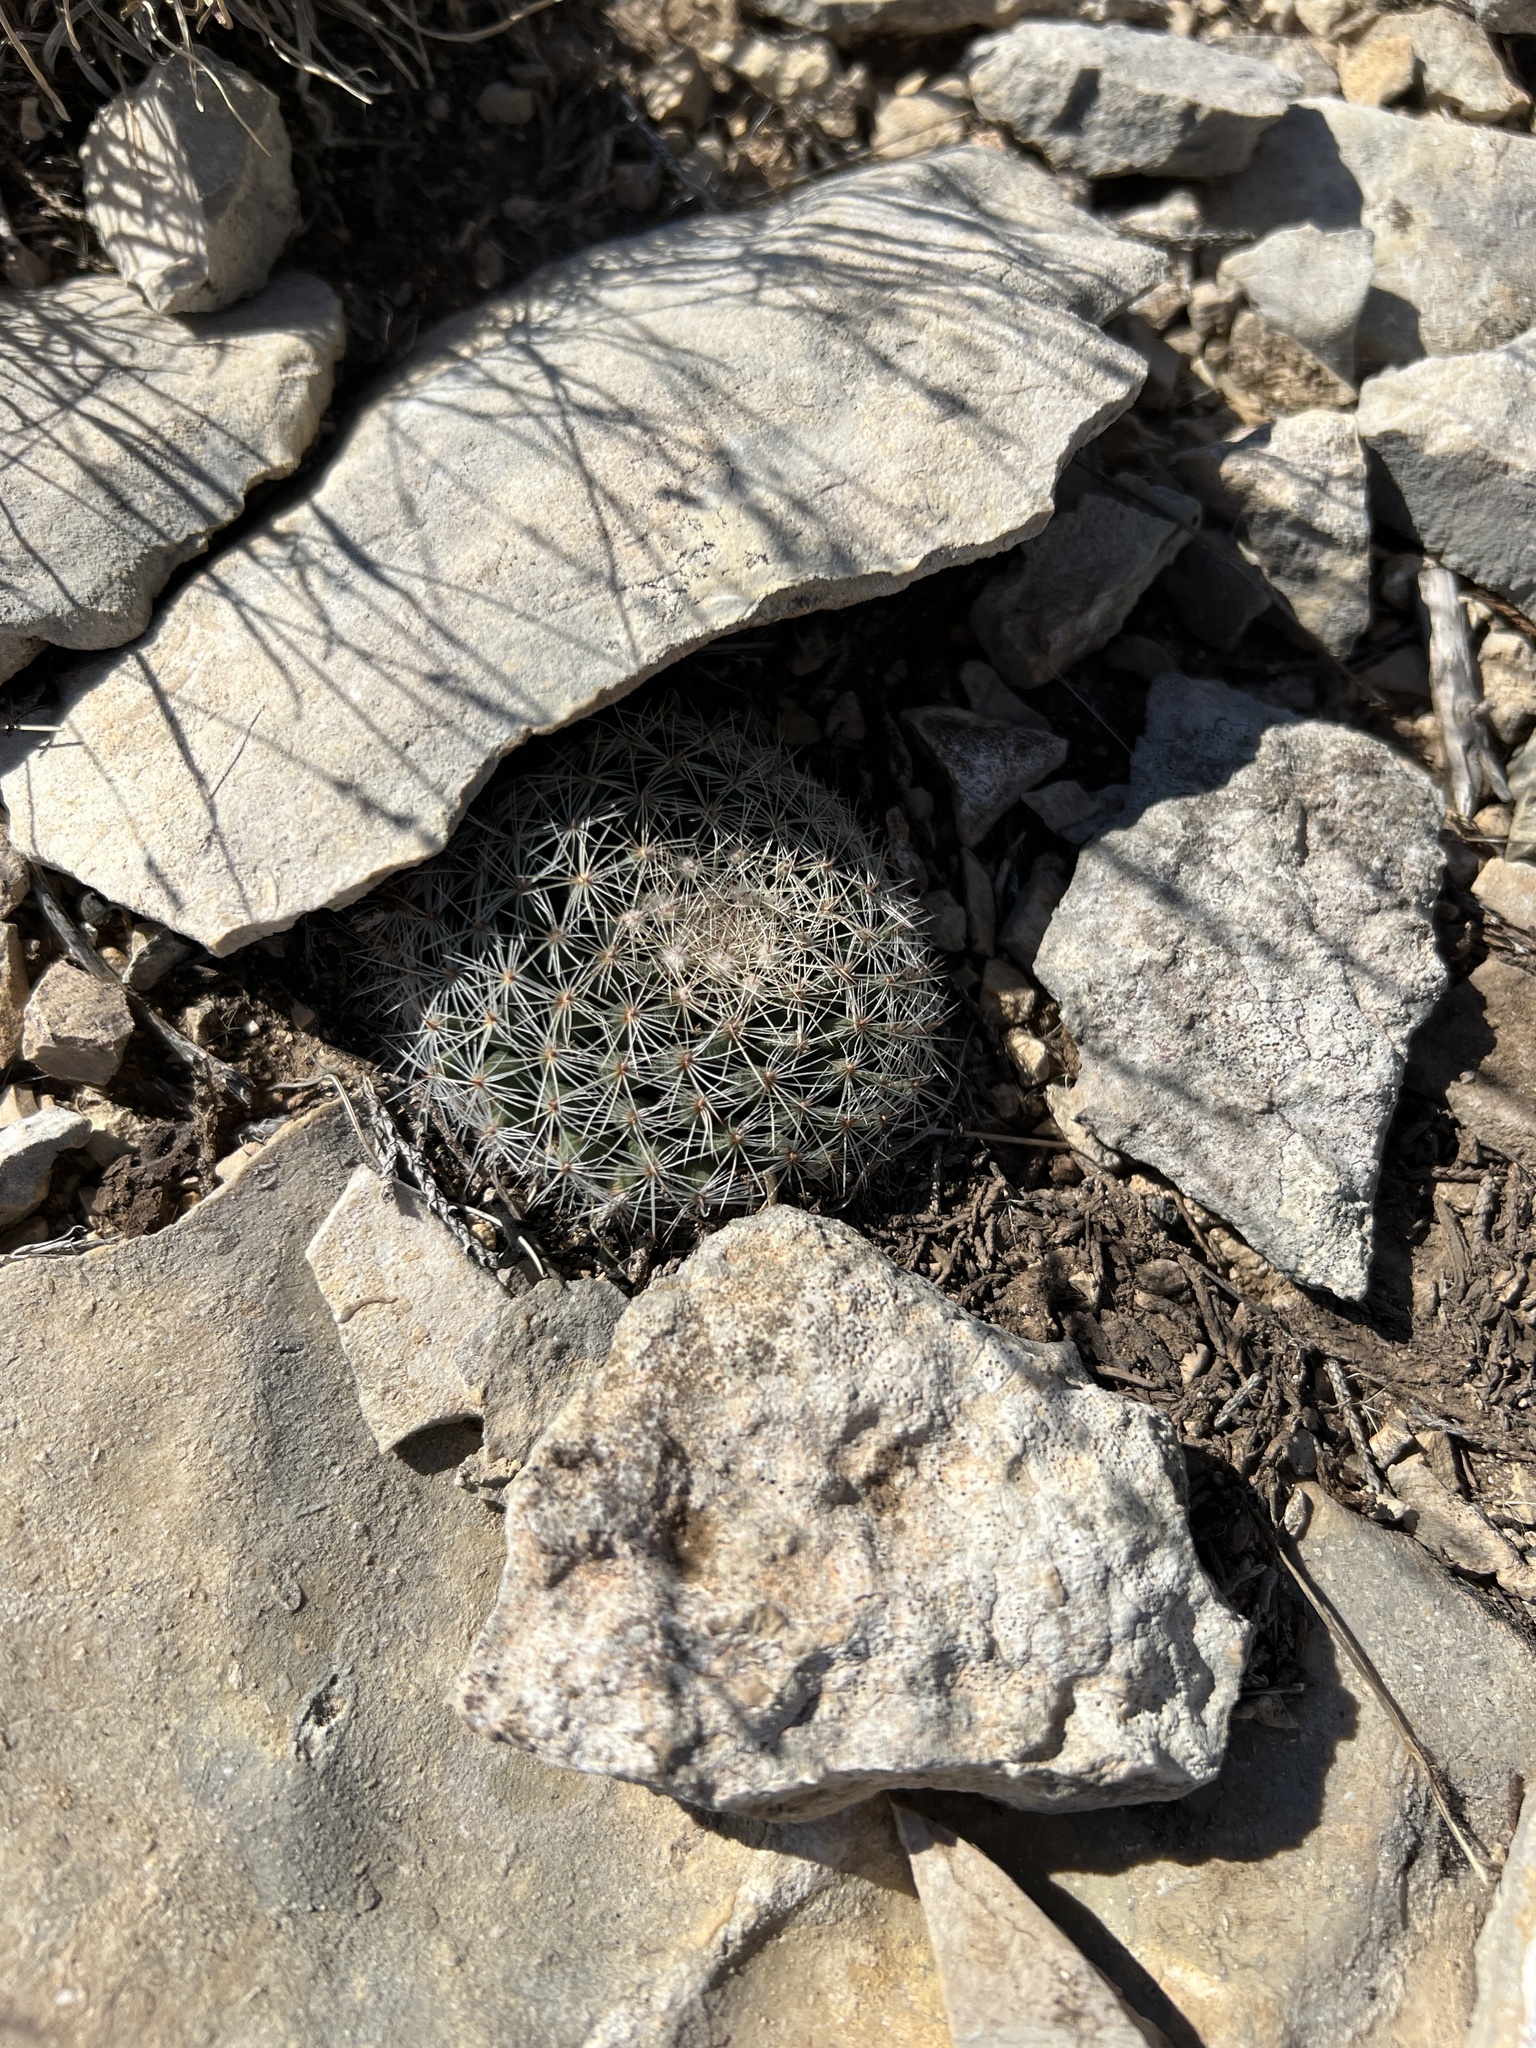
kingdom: Plantae
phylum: Tracheophyta
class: Magnoliopsida
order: Caryophyllales
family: Cactaceae
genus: Mammillaria
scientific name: Mammillaria heyderi
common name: Little nipple cactus
